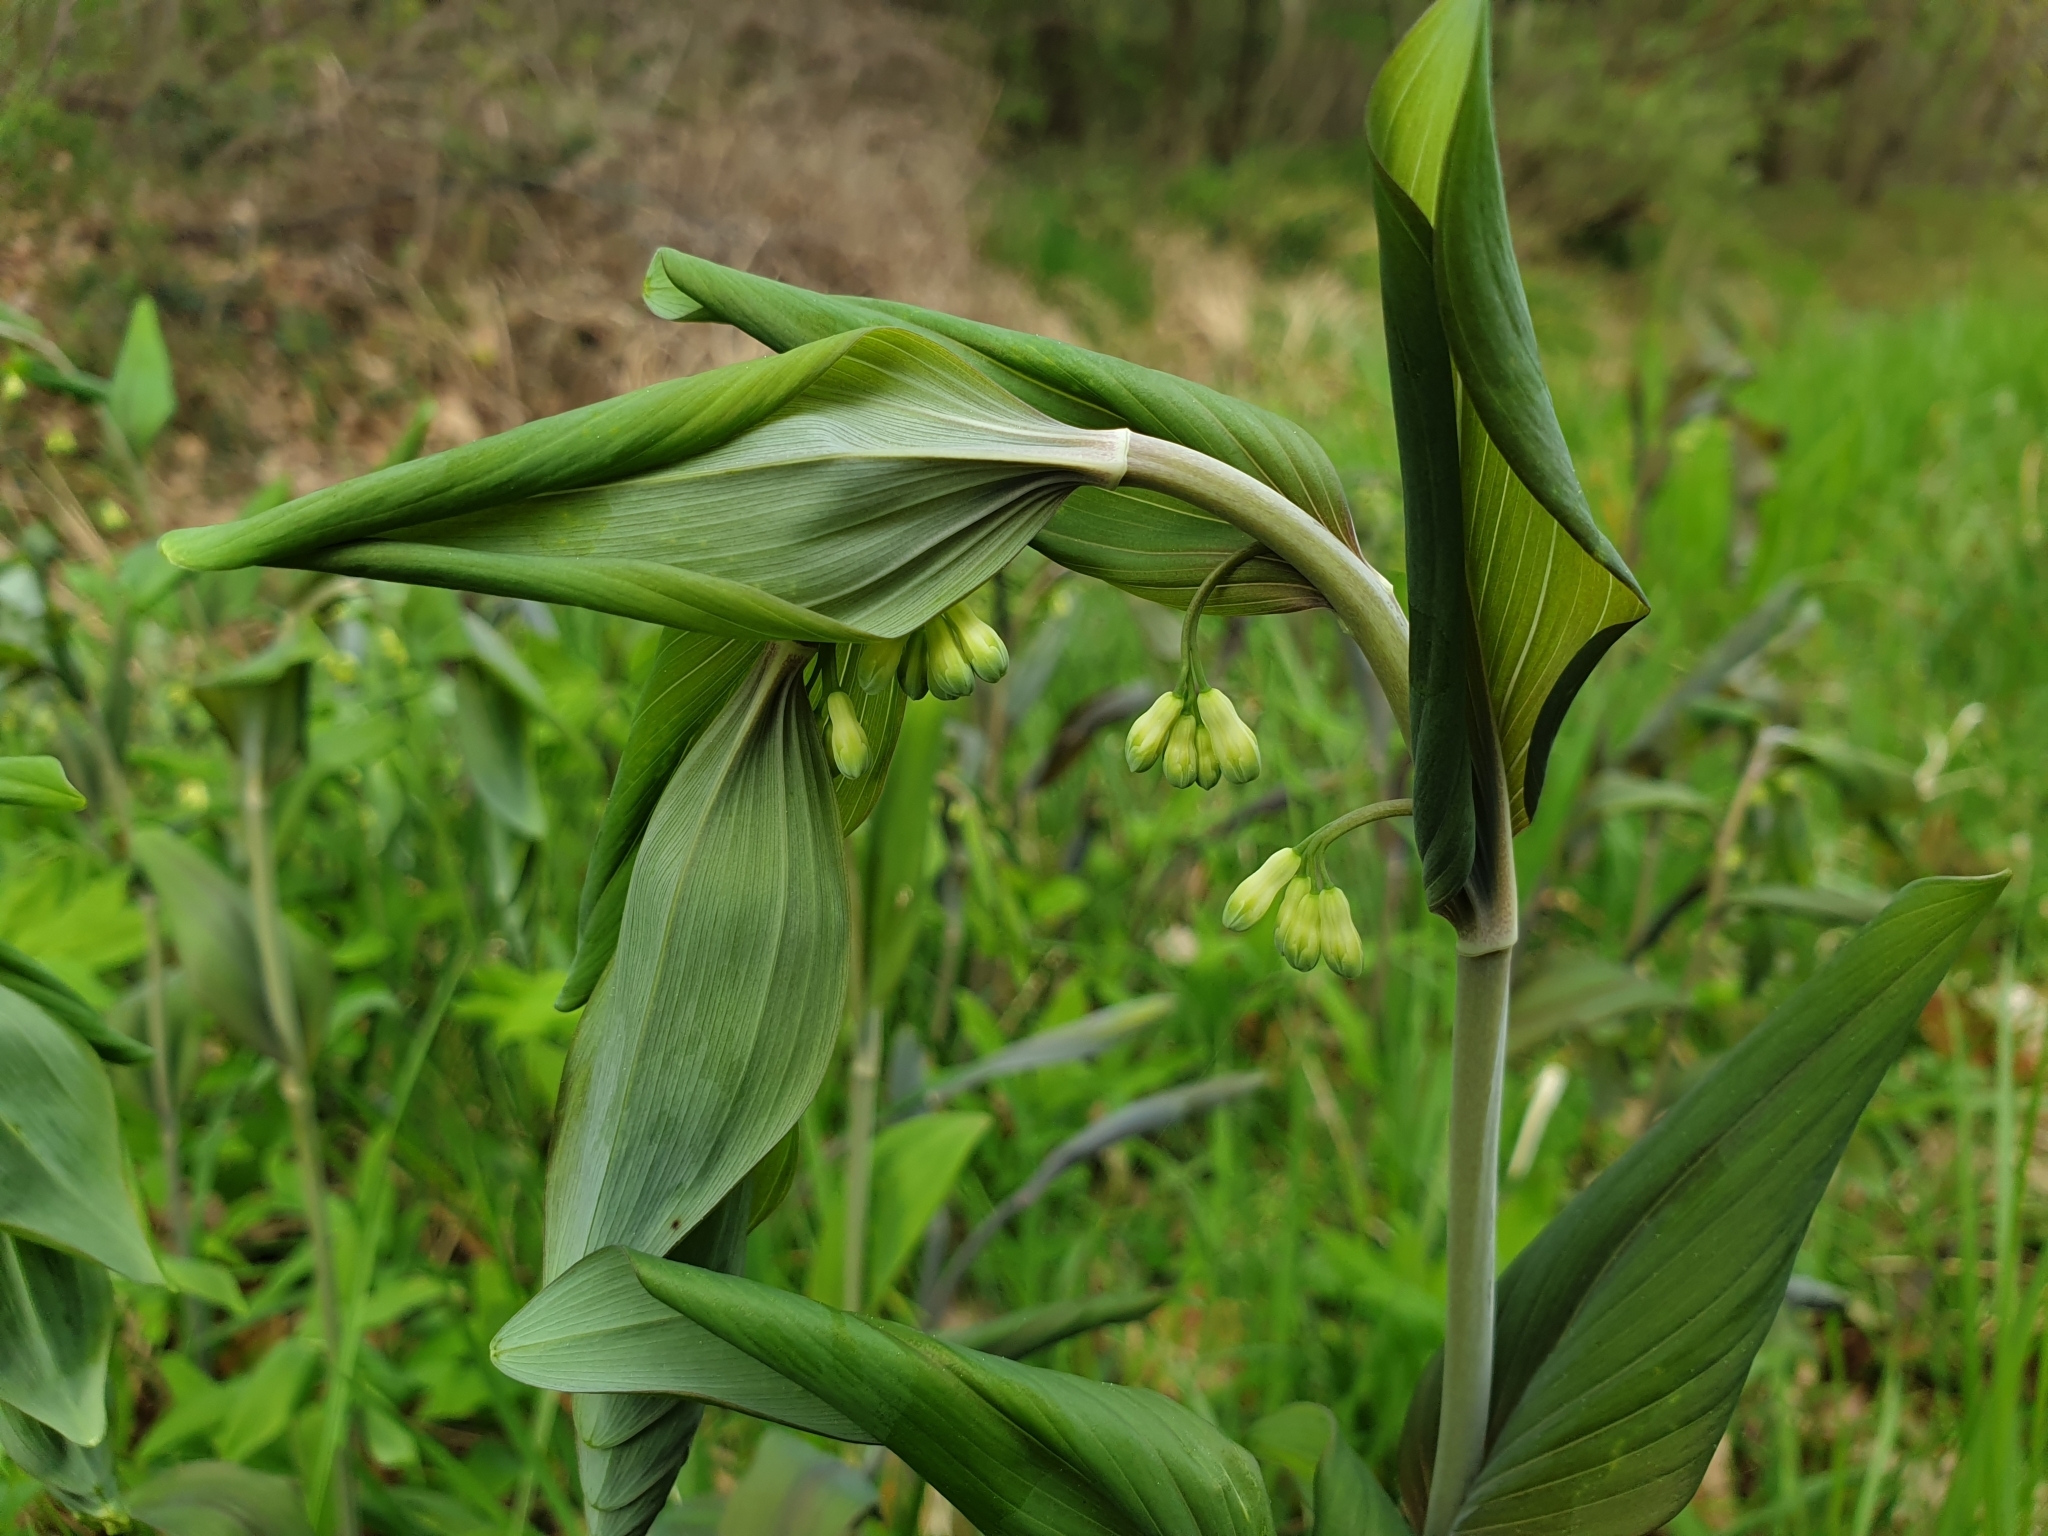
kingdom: Plantae
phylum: Tracheophyta
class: Liliopsida
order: Asparagales
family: Asparagaceae
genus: Polygonatum
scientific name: Polygonatum multiflorum
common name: Solomon's-seal
